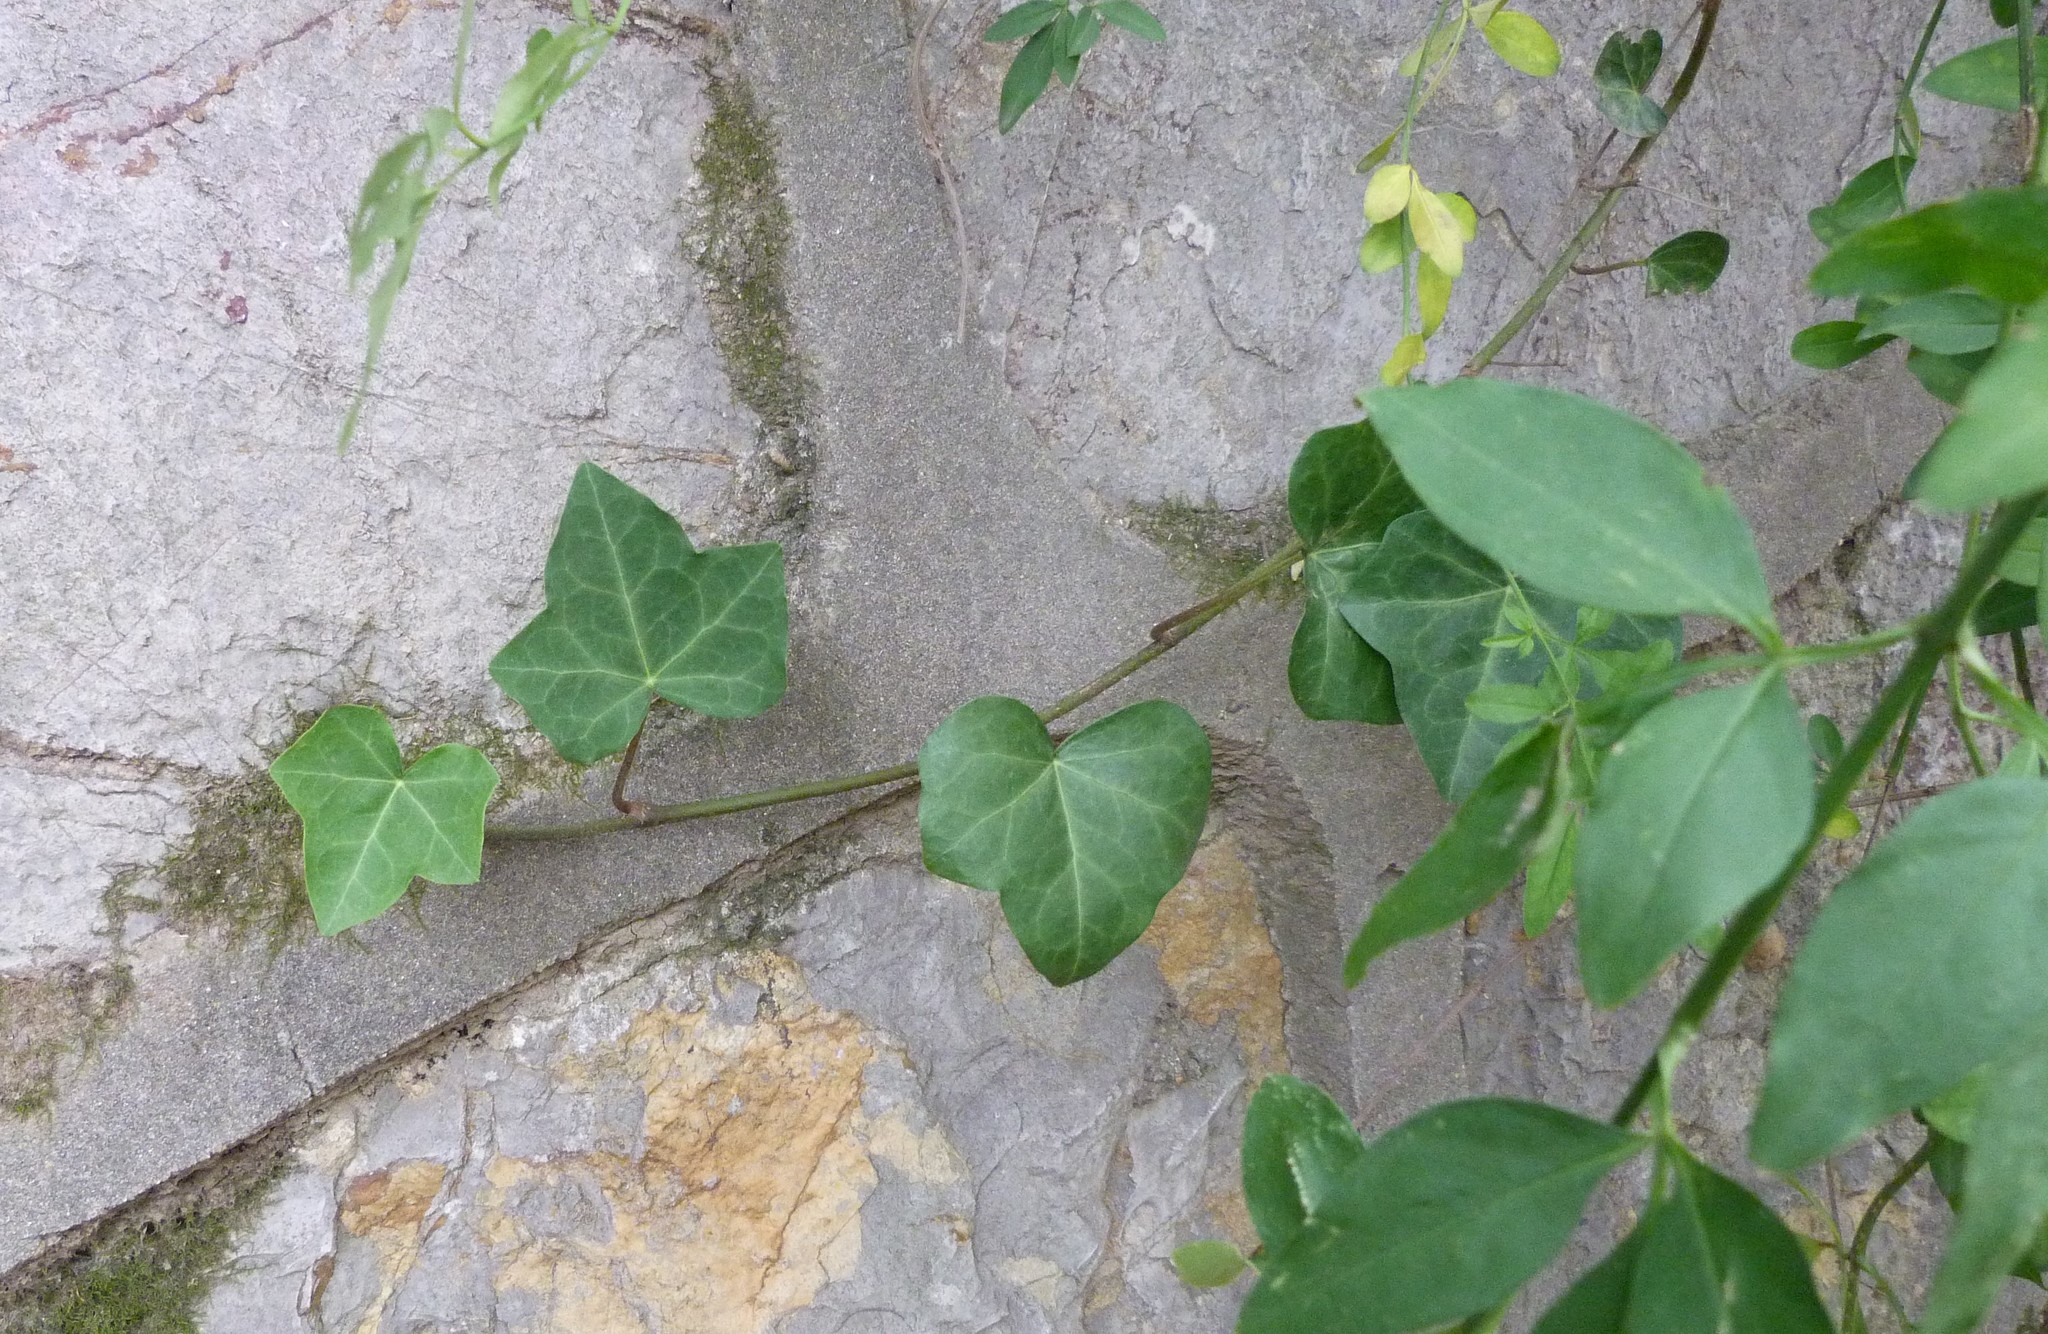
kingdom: Plantae
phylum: Tracheophyta
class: Magnoliopsida
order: Apiales
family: Araliaceae
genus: Hedera
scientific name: Hedera helix
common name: Ivy
